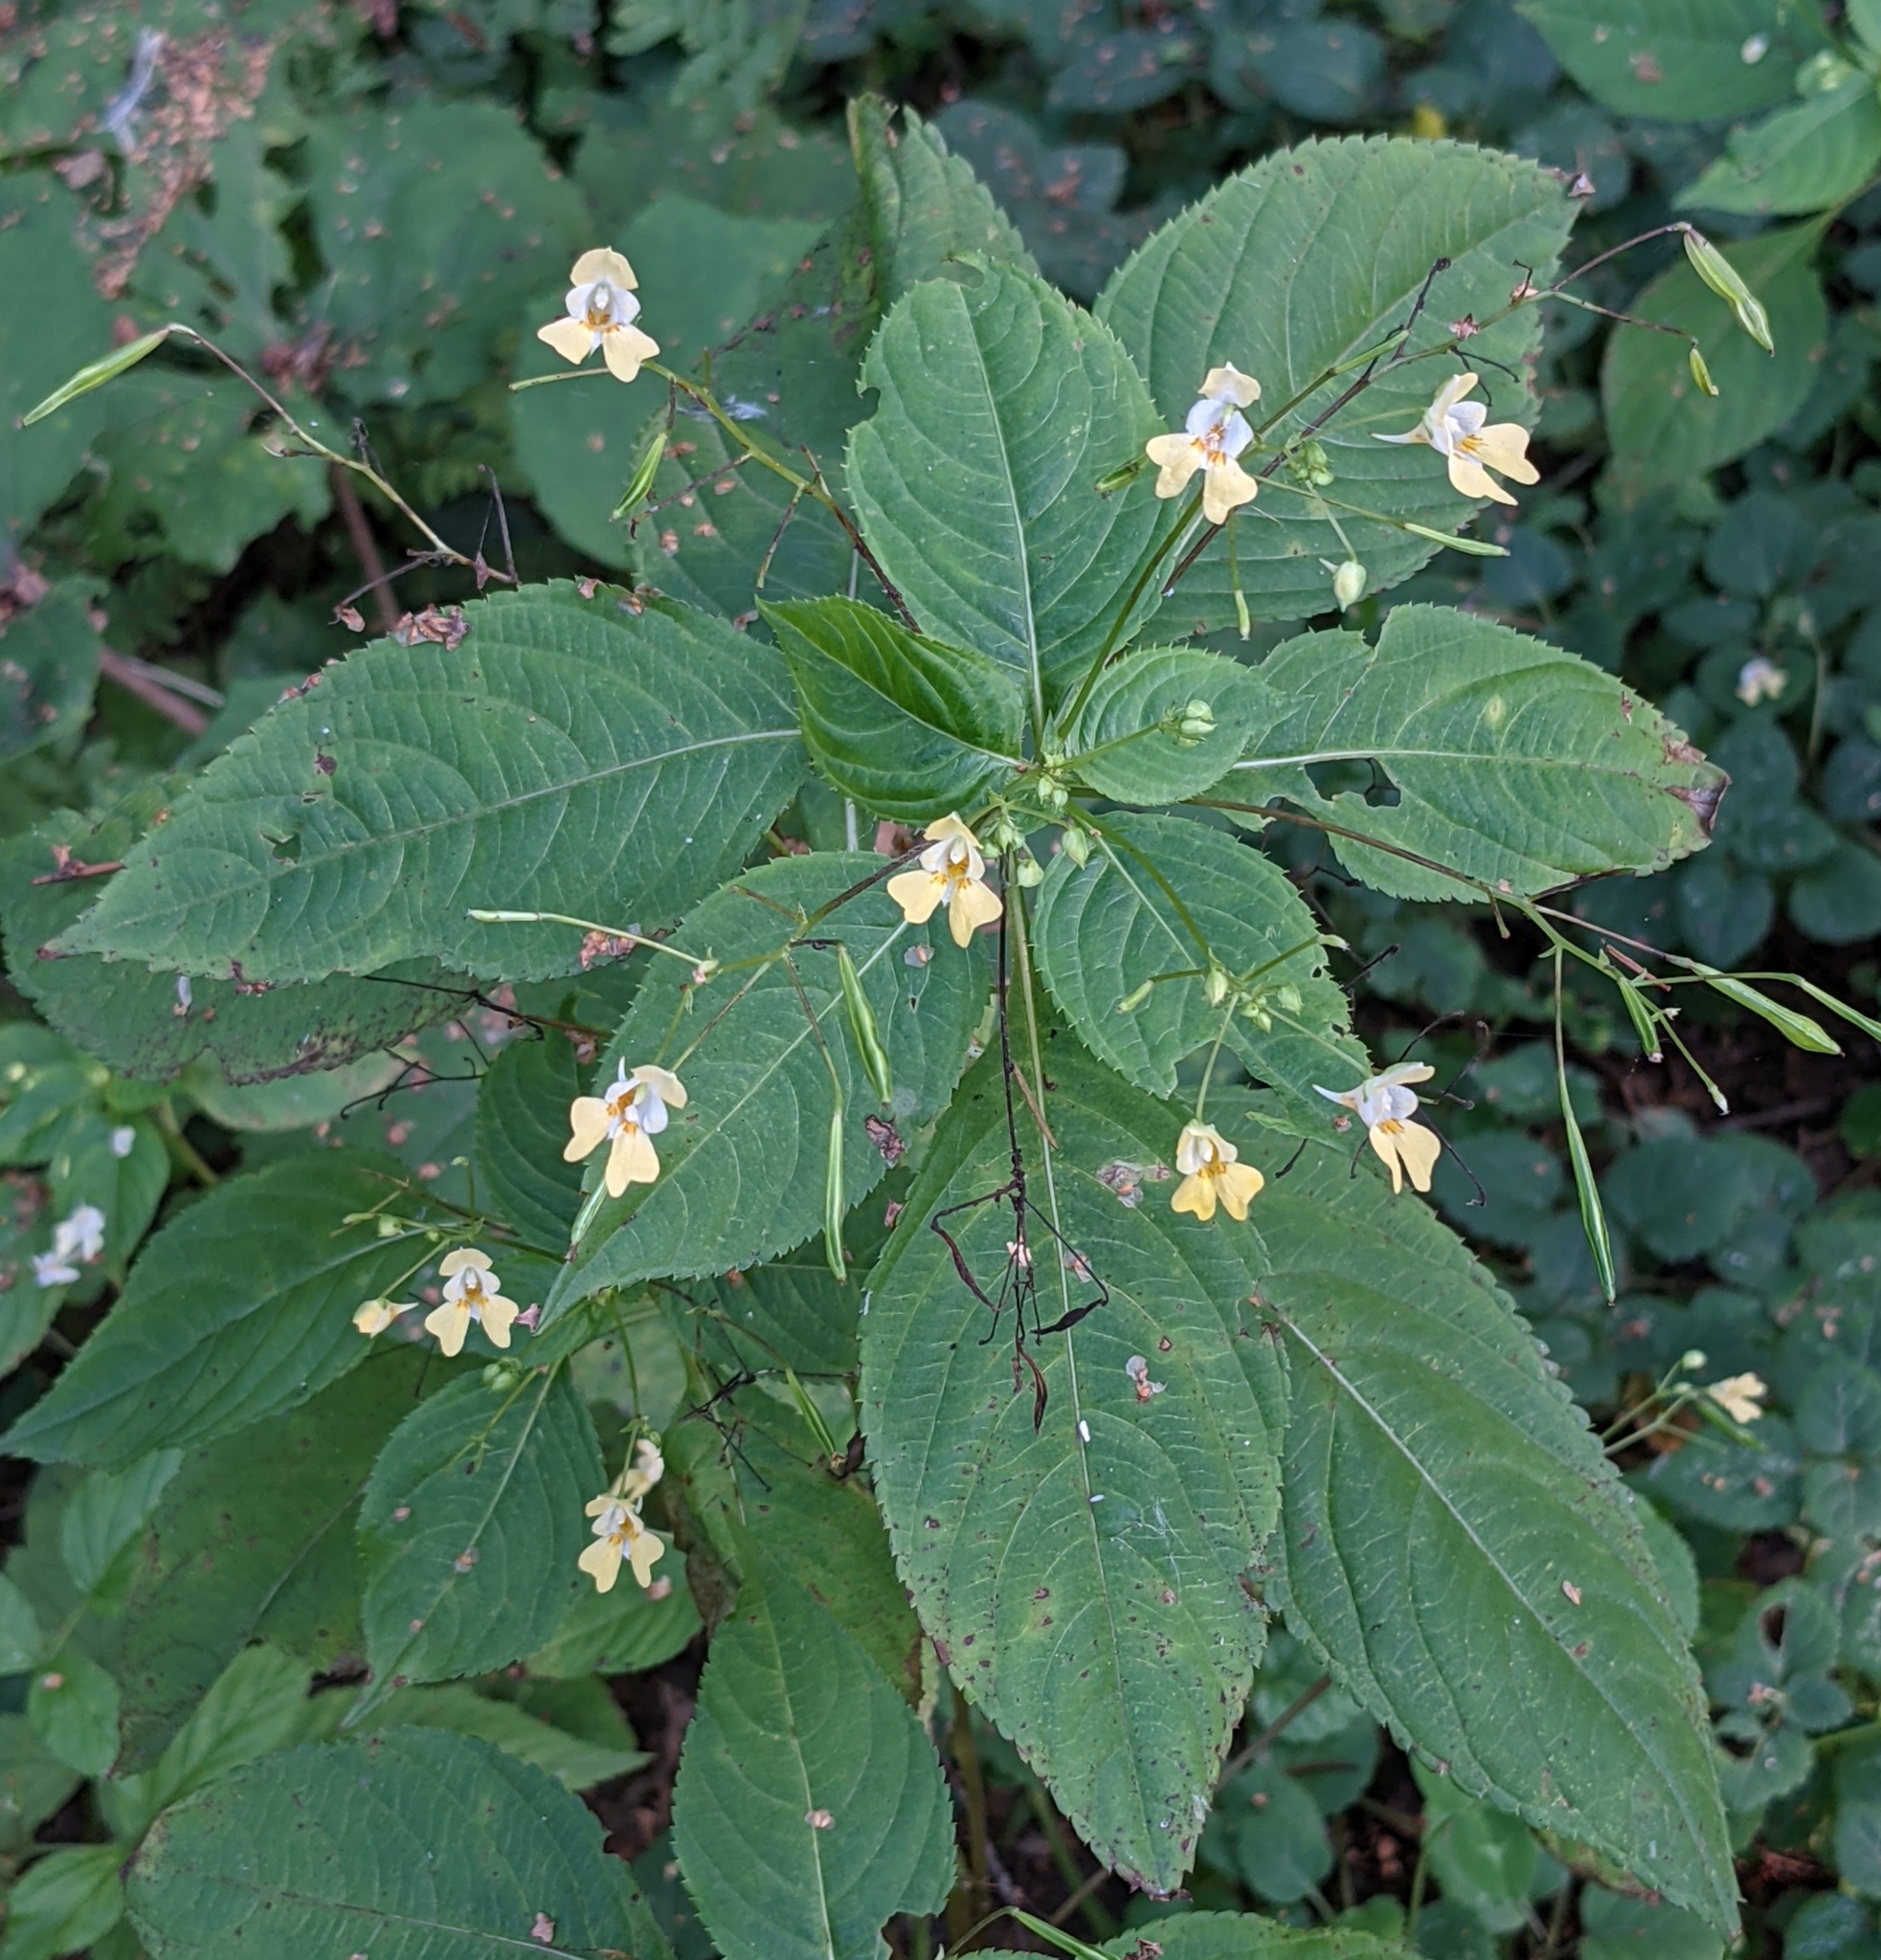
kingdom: Plantae
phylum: Tracheophyta
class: Magnoliopsida
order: Ericales
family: Balsaminaceae
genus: Impatiens
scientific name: Impatiens parviflora
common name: Small balsam
